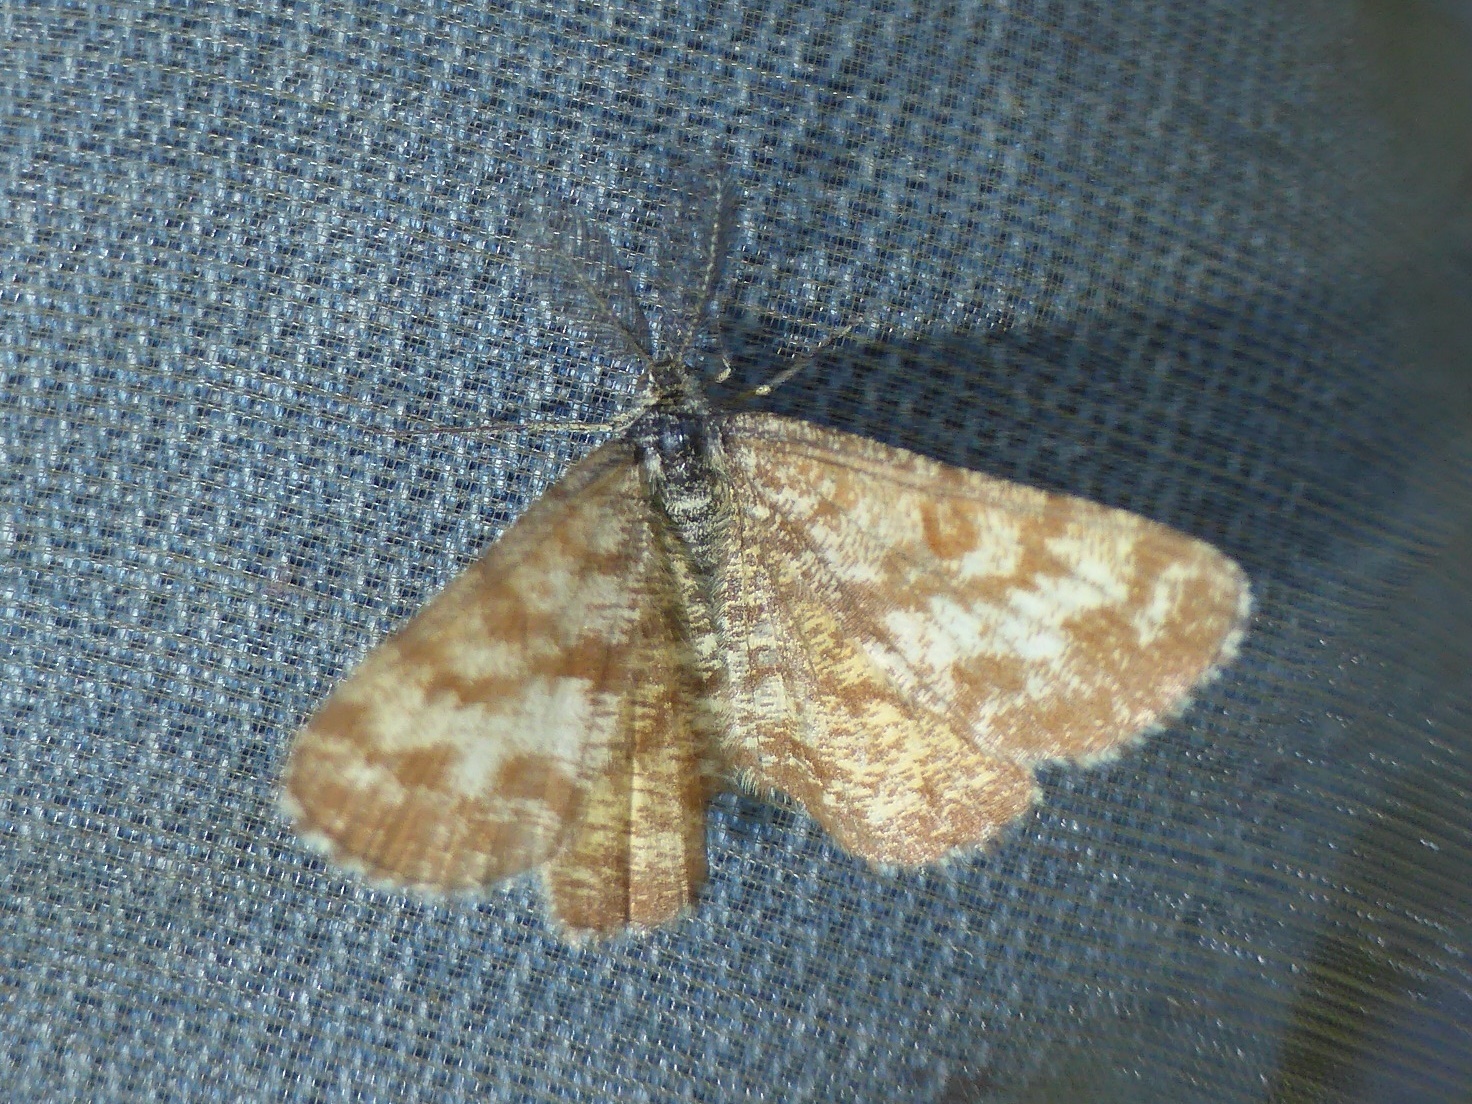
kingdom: Animalia
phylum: Arthropoda
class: Insecta
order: Lepidoptera
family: Geometridae
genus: Ematurga
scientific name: Ematurga atomaria
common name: Common heath
